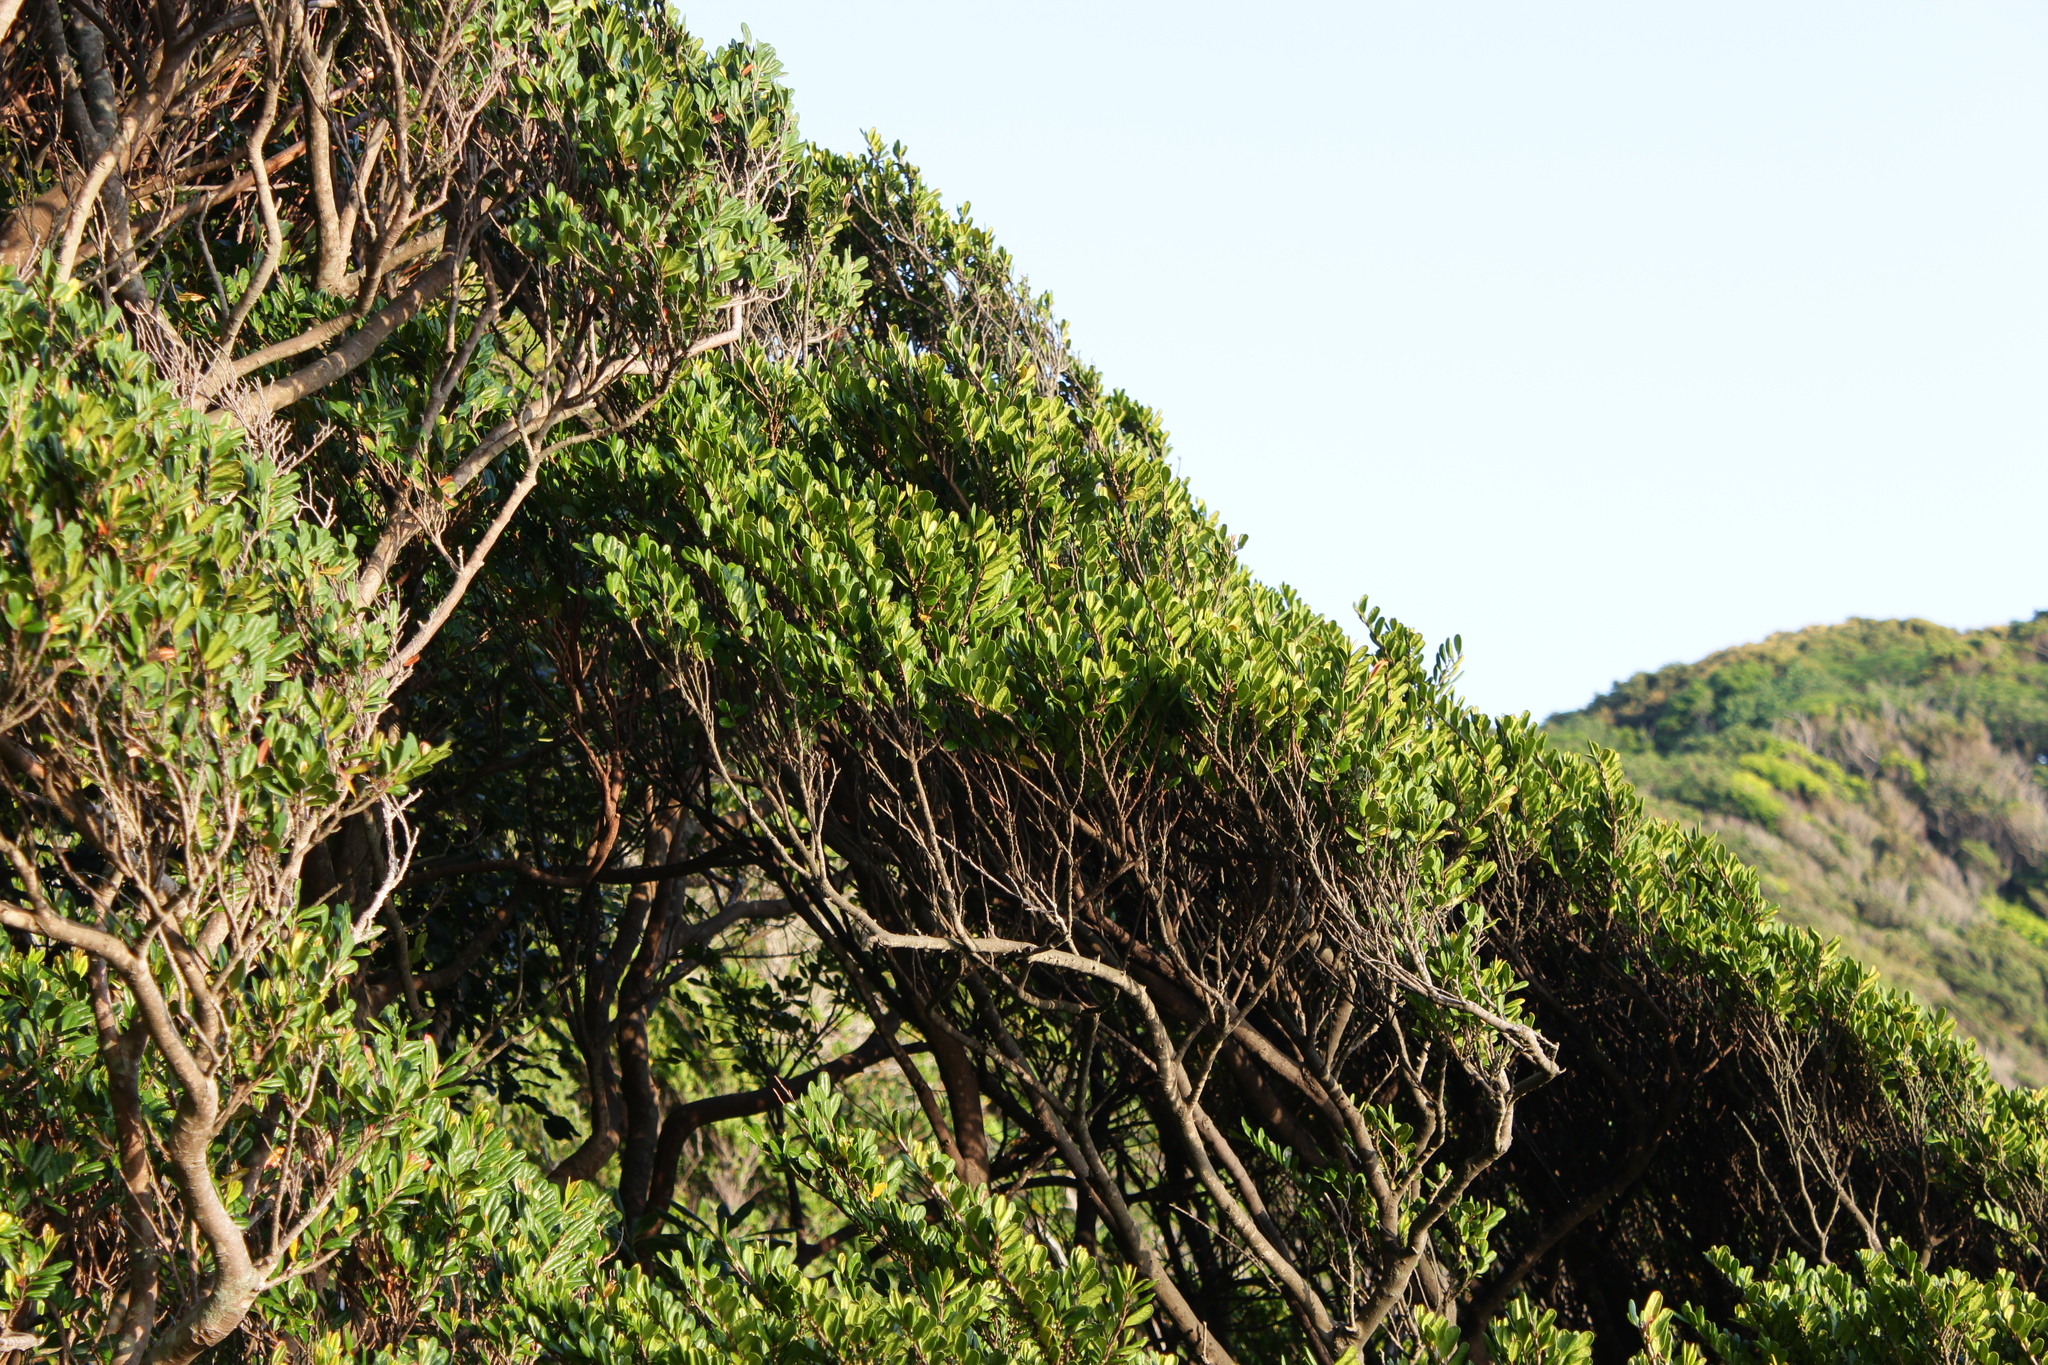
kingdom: Plantae
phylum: Tracheophyta
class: Magnoliopsida
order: Ericales
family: Pentaphylacaceae
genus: Eurya
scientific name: Eurya emarginata
